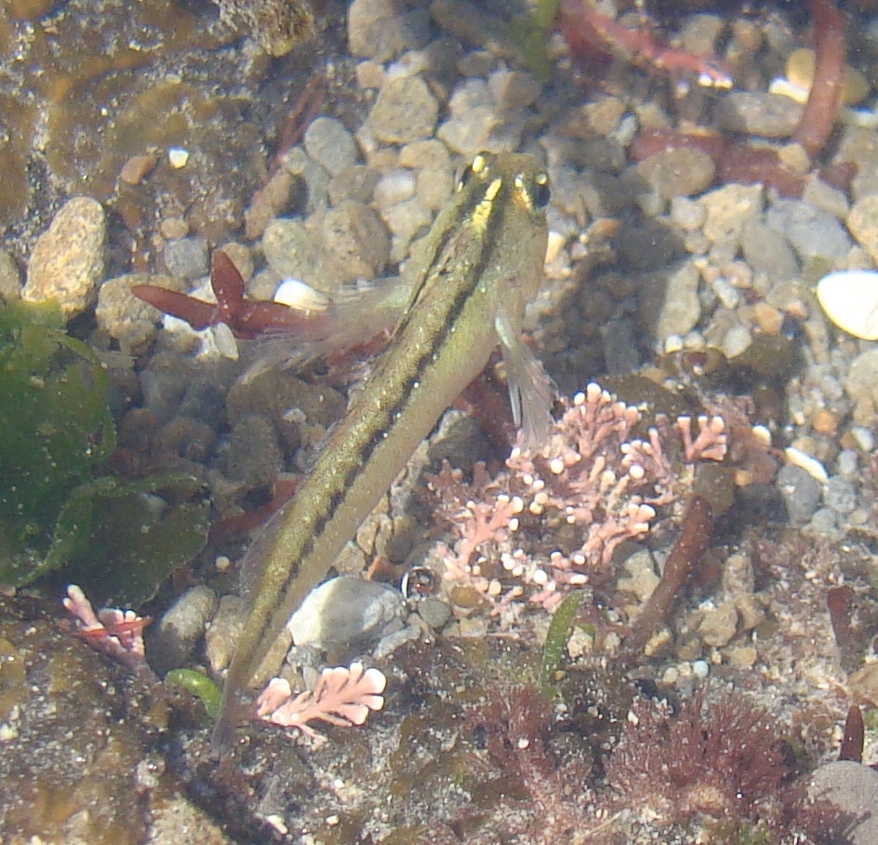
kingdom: Animalia
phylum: Chordata
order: Perciformes
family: Tripterygiidae
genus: Forsterygion
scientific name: Forsterygion lapillum
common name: Common triplefin
